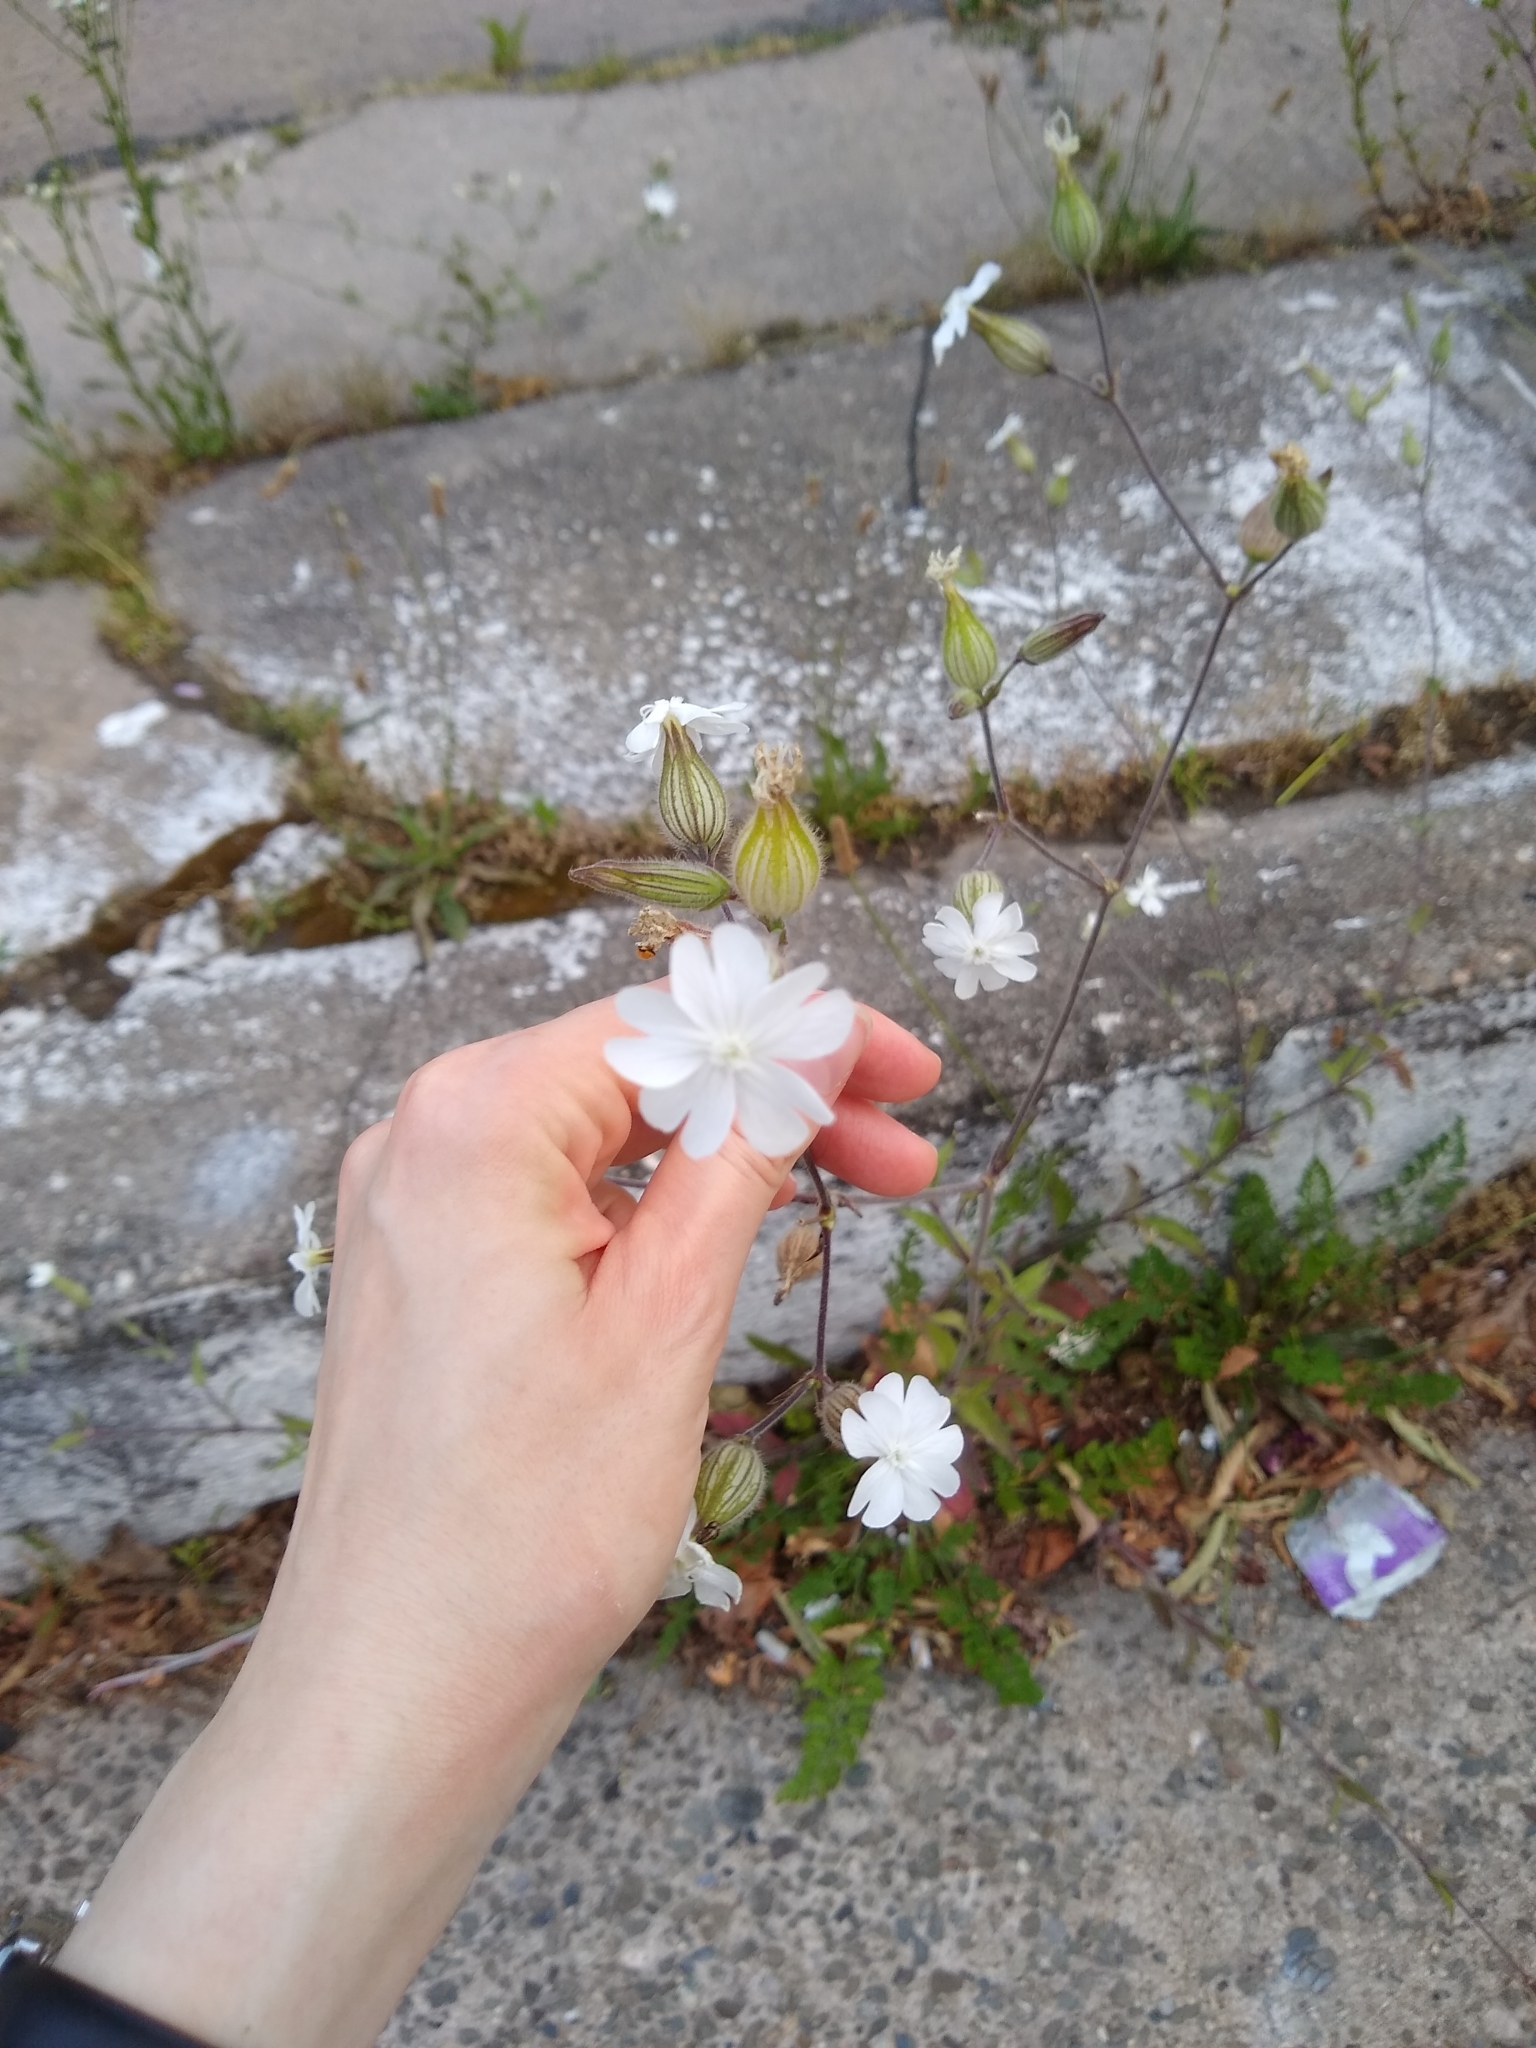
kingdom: Plantae
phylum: Tracheophyta
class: Magnoliopsida
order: Caryophyllales
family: Caryophyllaceae
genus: Silene
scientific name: Silene latifolia
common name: White campion
